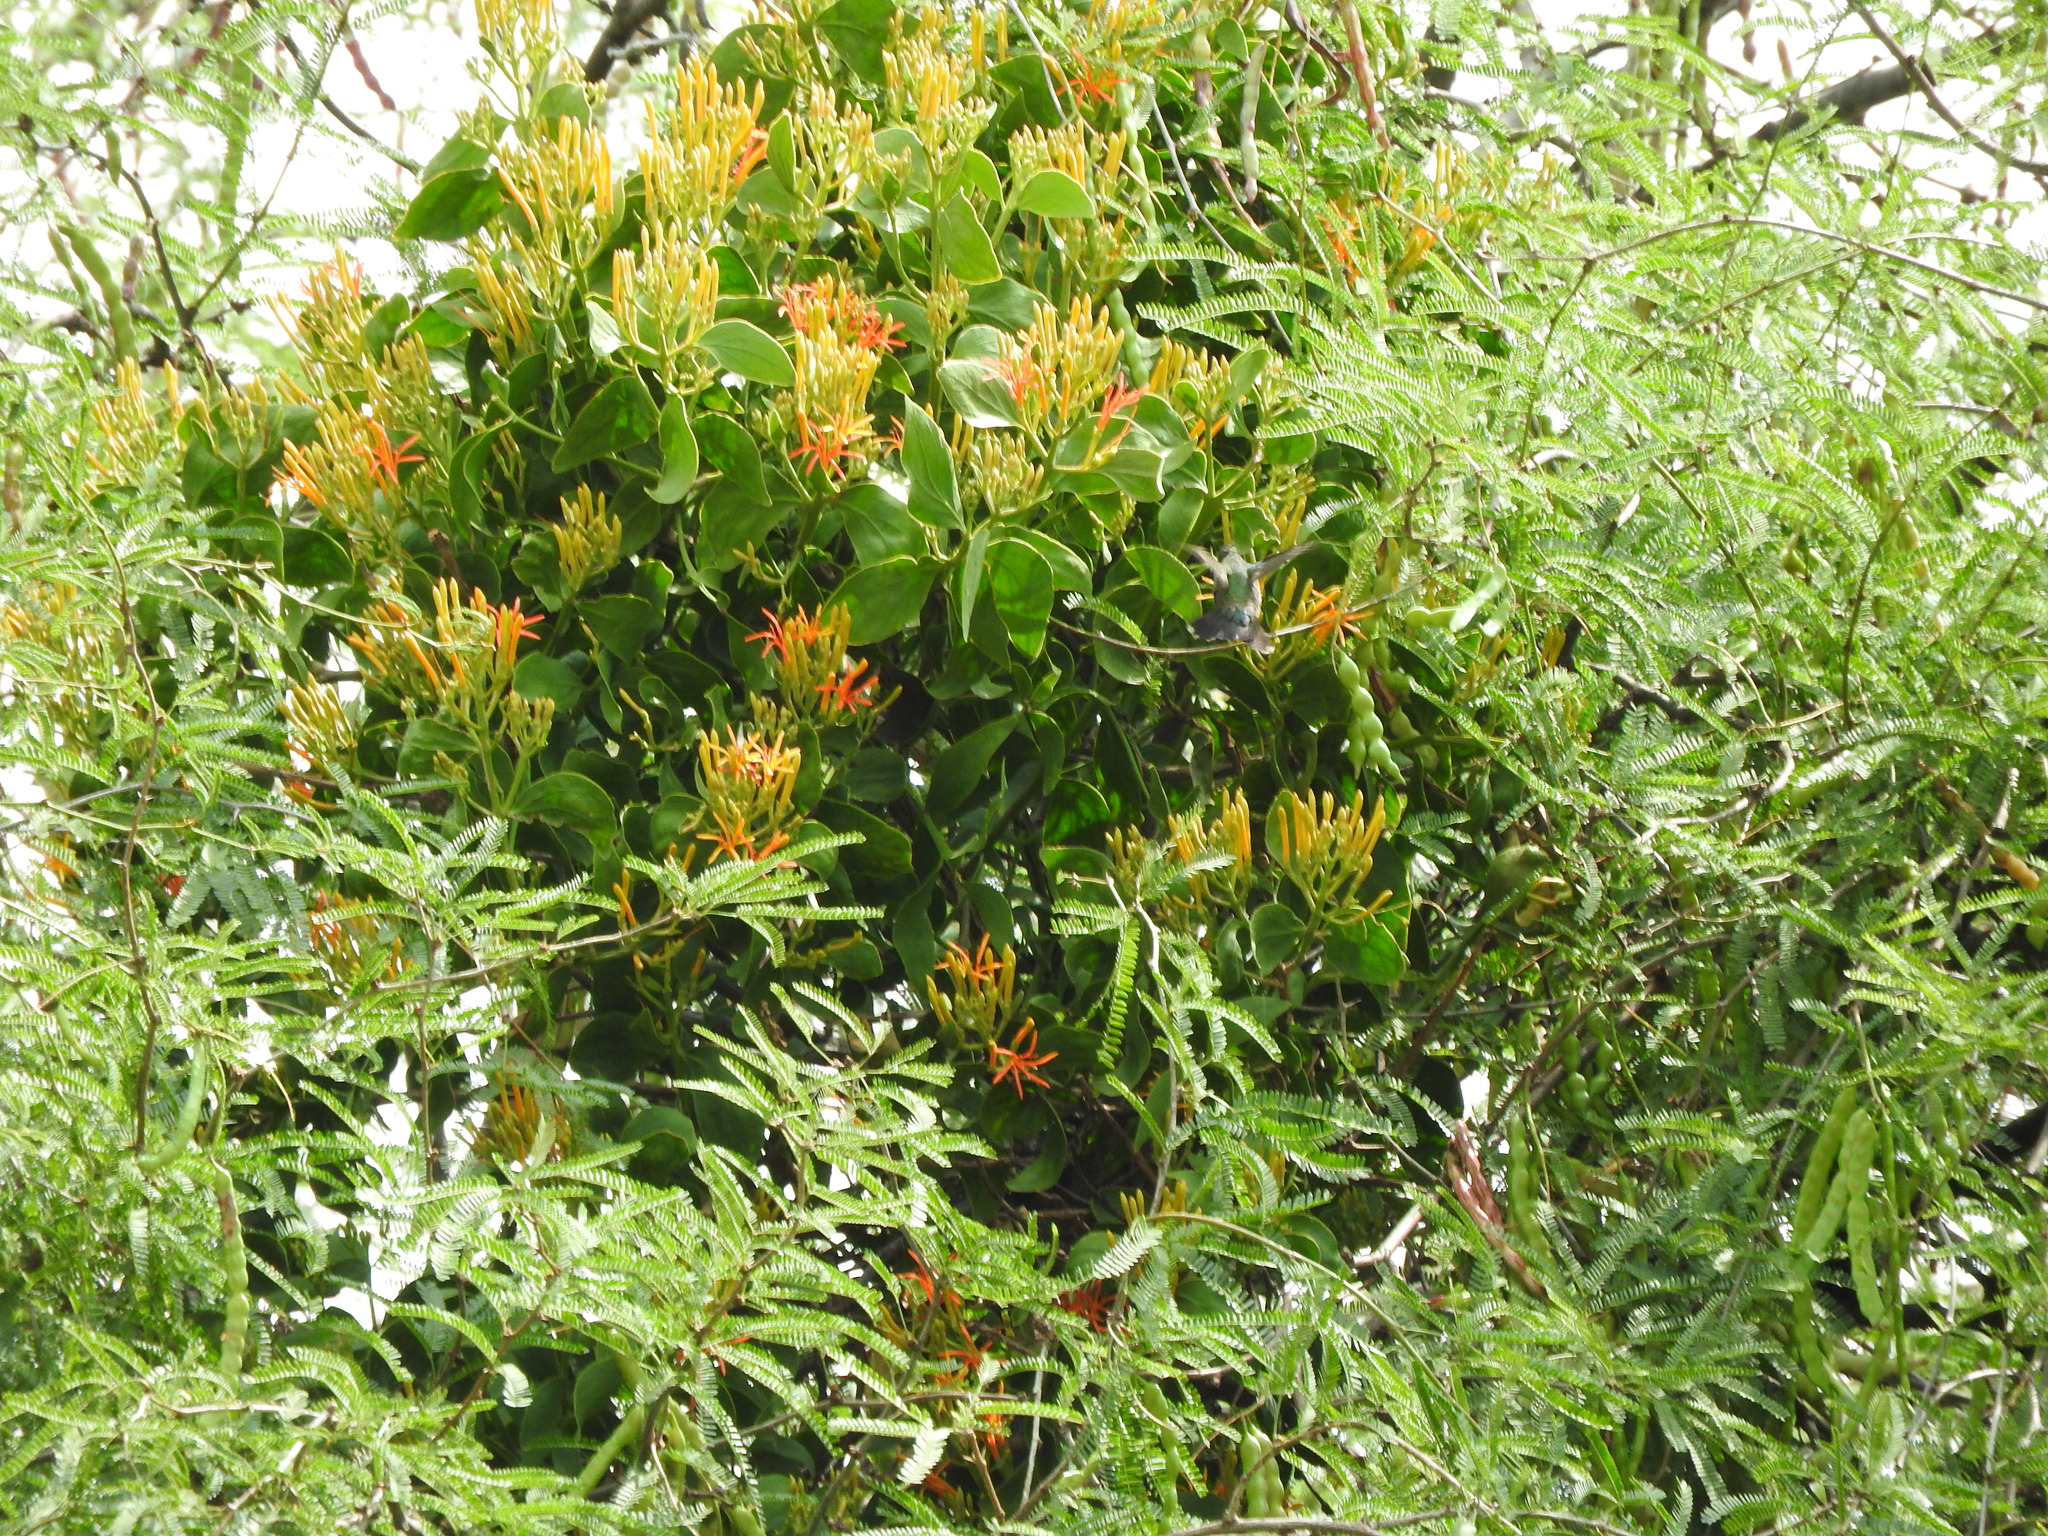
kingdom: Plantae
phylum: Tracheophyta
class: Magnoliopsida
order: Santalales
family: Loranthaceae
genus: Psittacanthus
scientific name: Psittacanthus calyculatus
